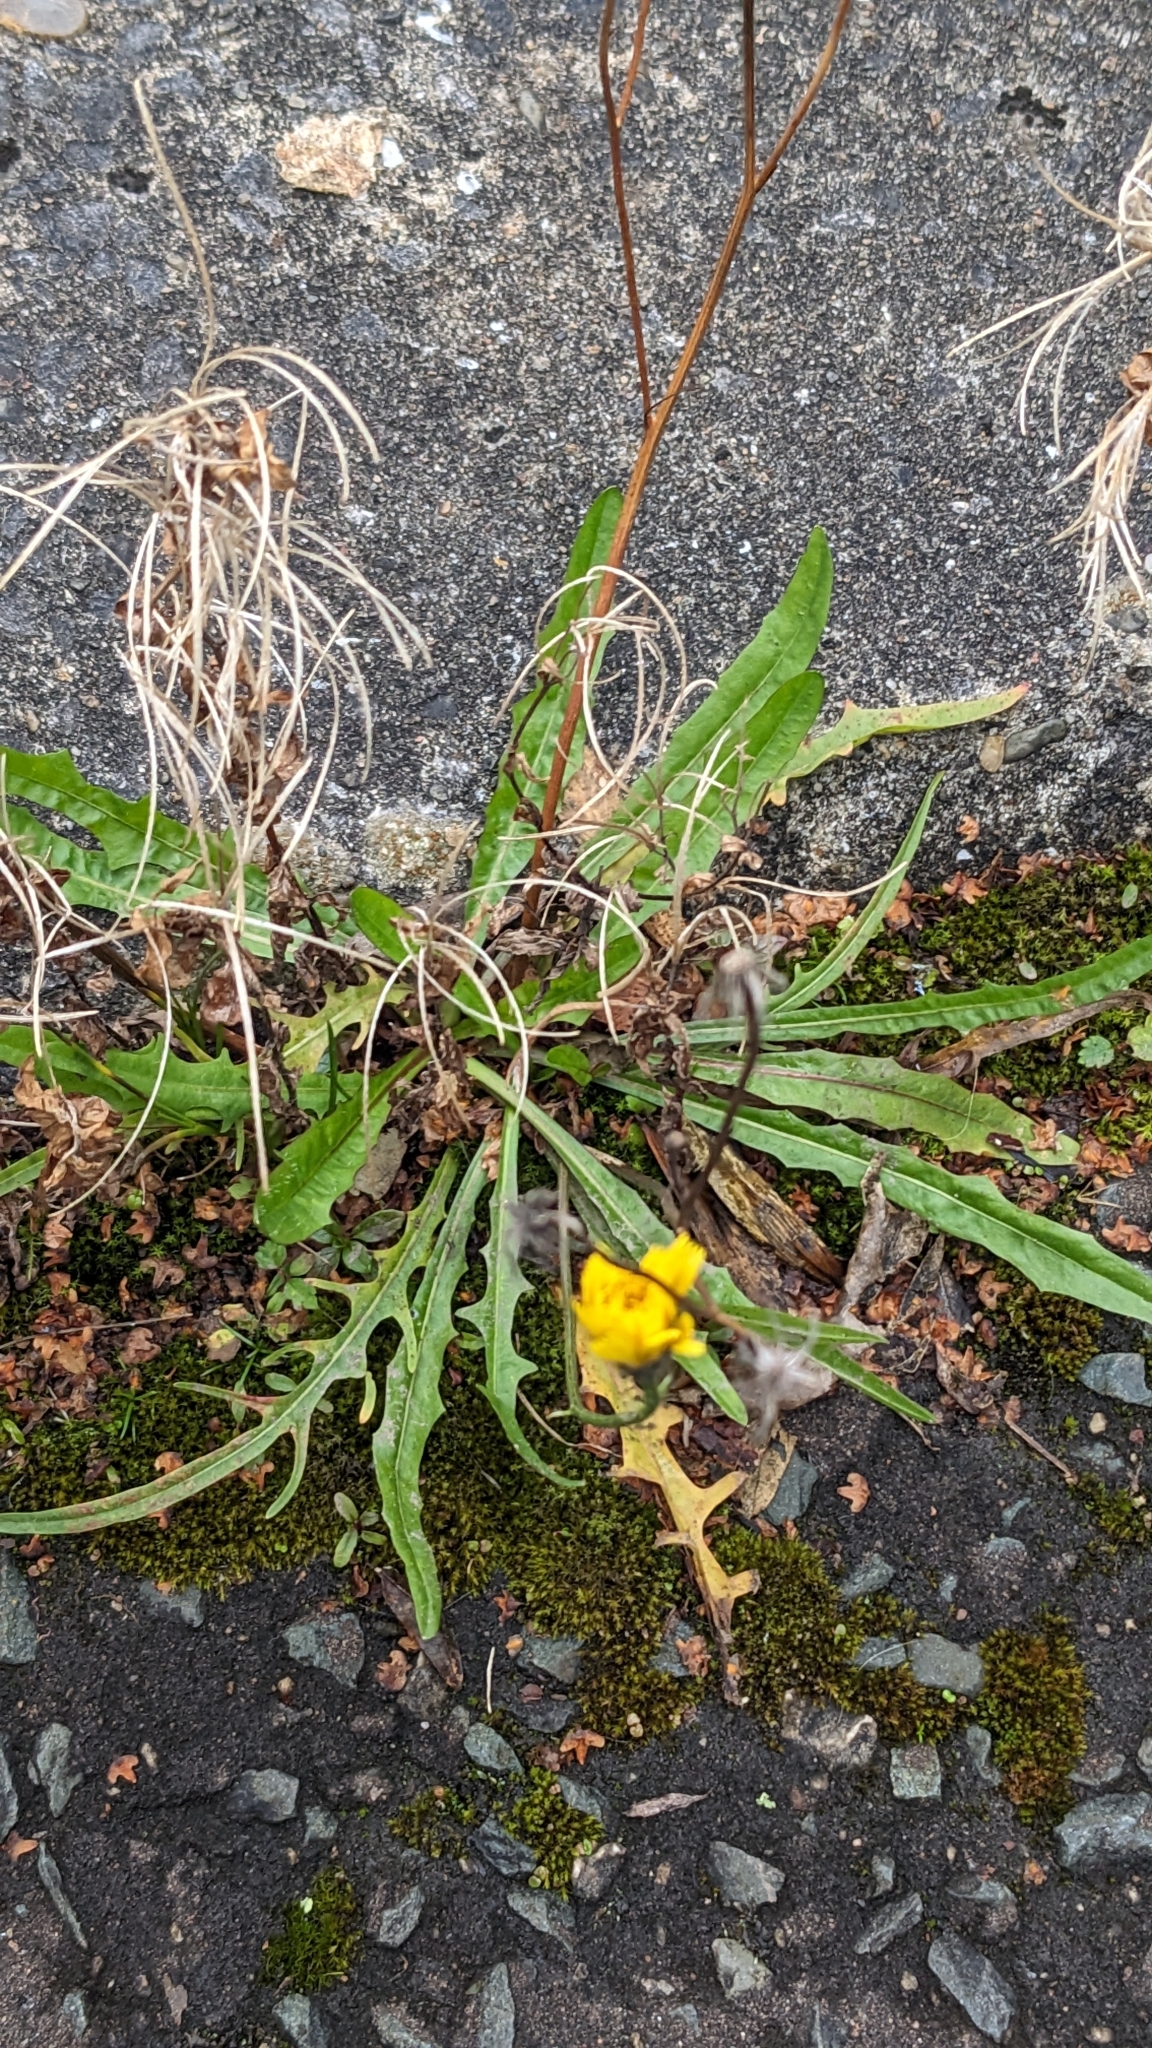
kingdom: Plantae
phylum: Tracheophyta
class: Magnoliopsida
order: Asterales
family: Asteraceae
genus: Scorzoneroides
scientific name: Scorzoneroides autumnalis
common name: Autumn hawkbit
